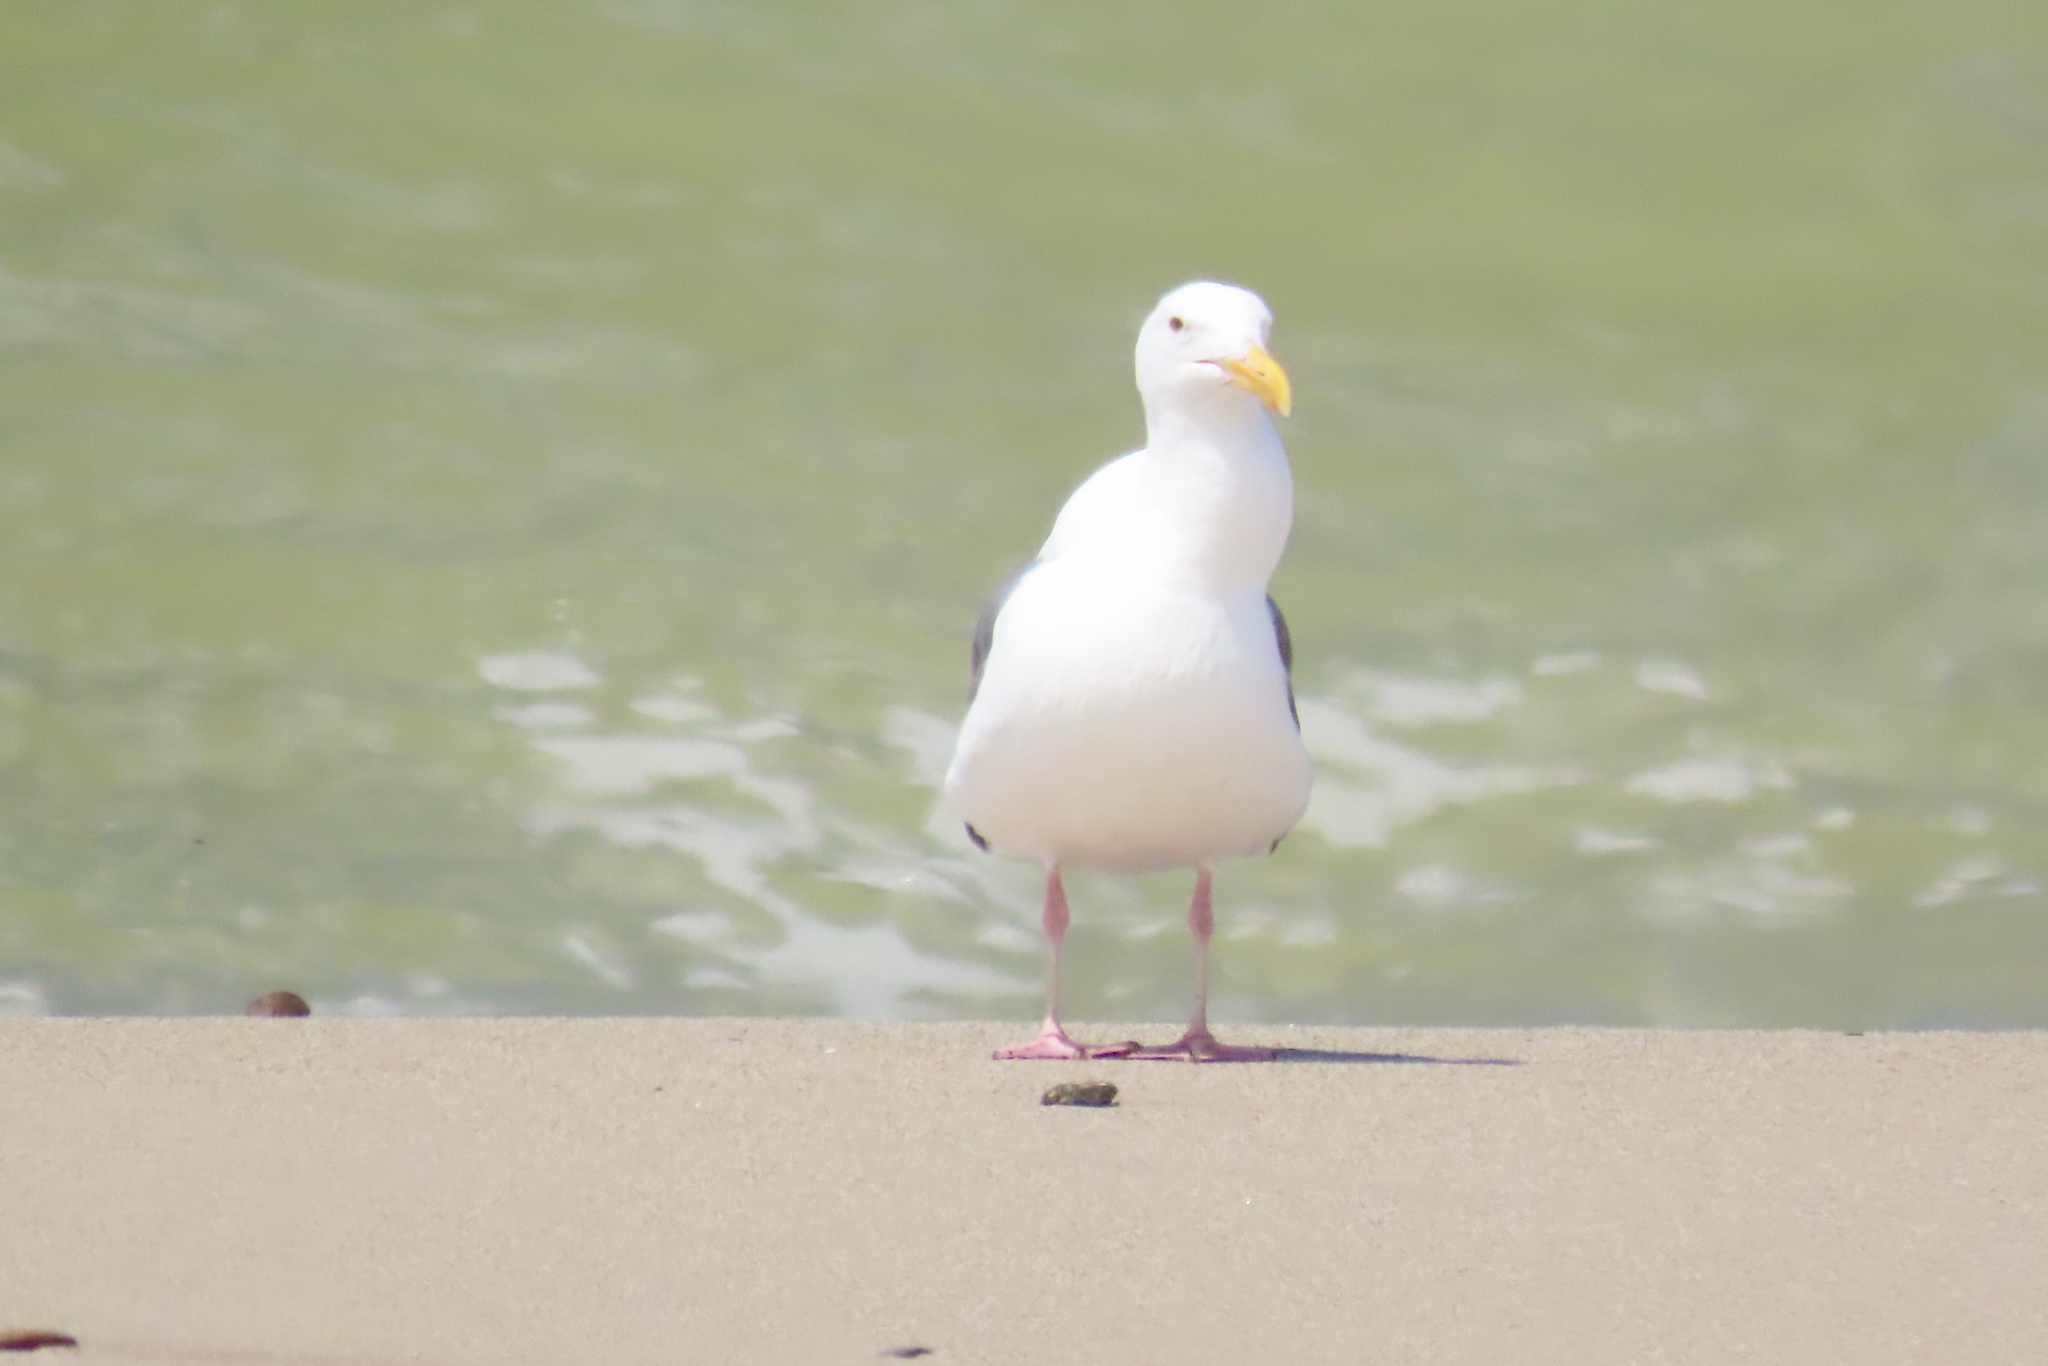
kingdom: Animalia
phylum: Chordata
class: Aves
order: Charadriiformes
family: Laridae
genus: Larus
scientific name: Larus occidentalis
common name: Western gull
